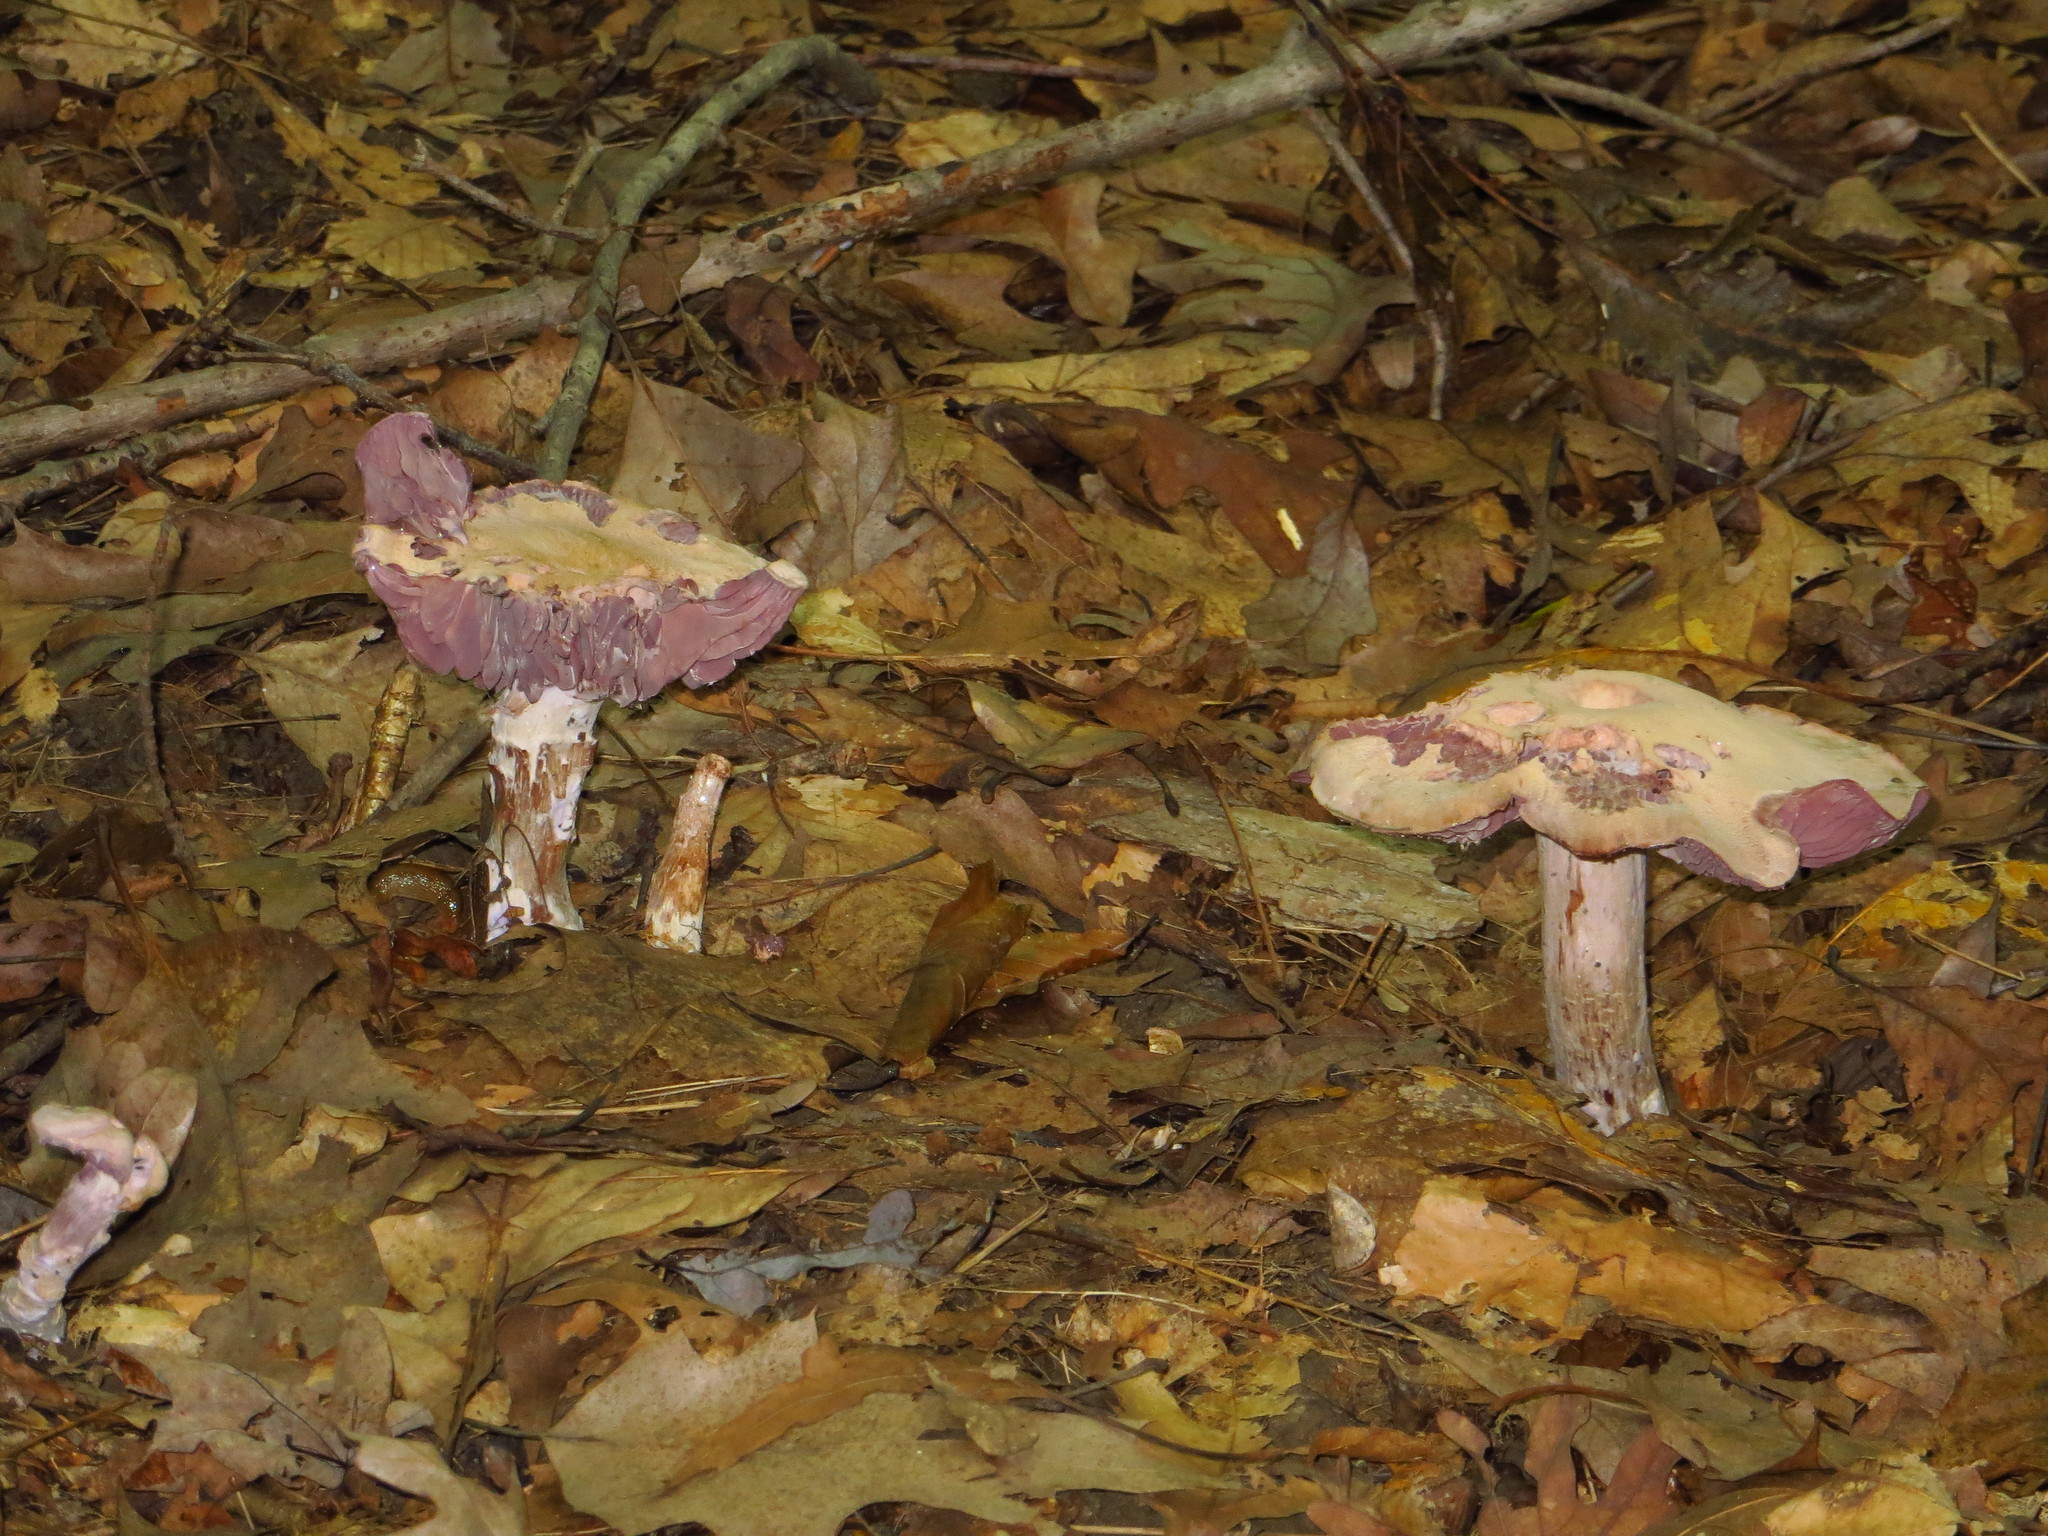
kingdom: Fungi
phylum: Basidiomycota
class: Agaricomycetes
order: Agaricales
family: Hydnangiaceae
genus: Laccaria
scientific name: Laccaria ochropurpurea
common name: Purple laccaria
